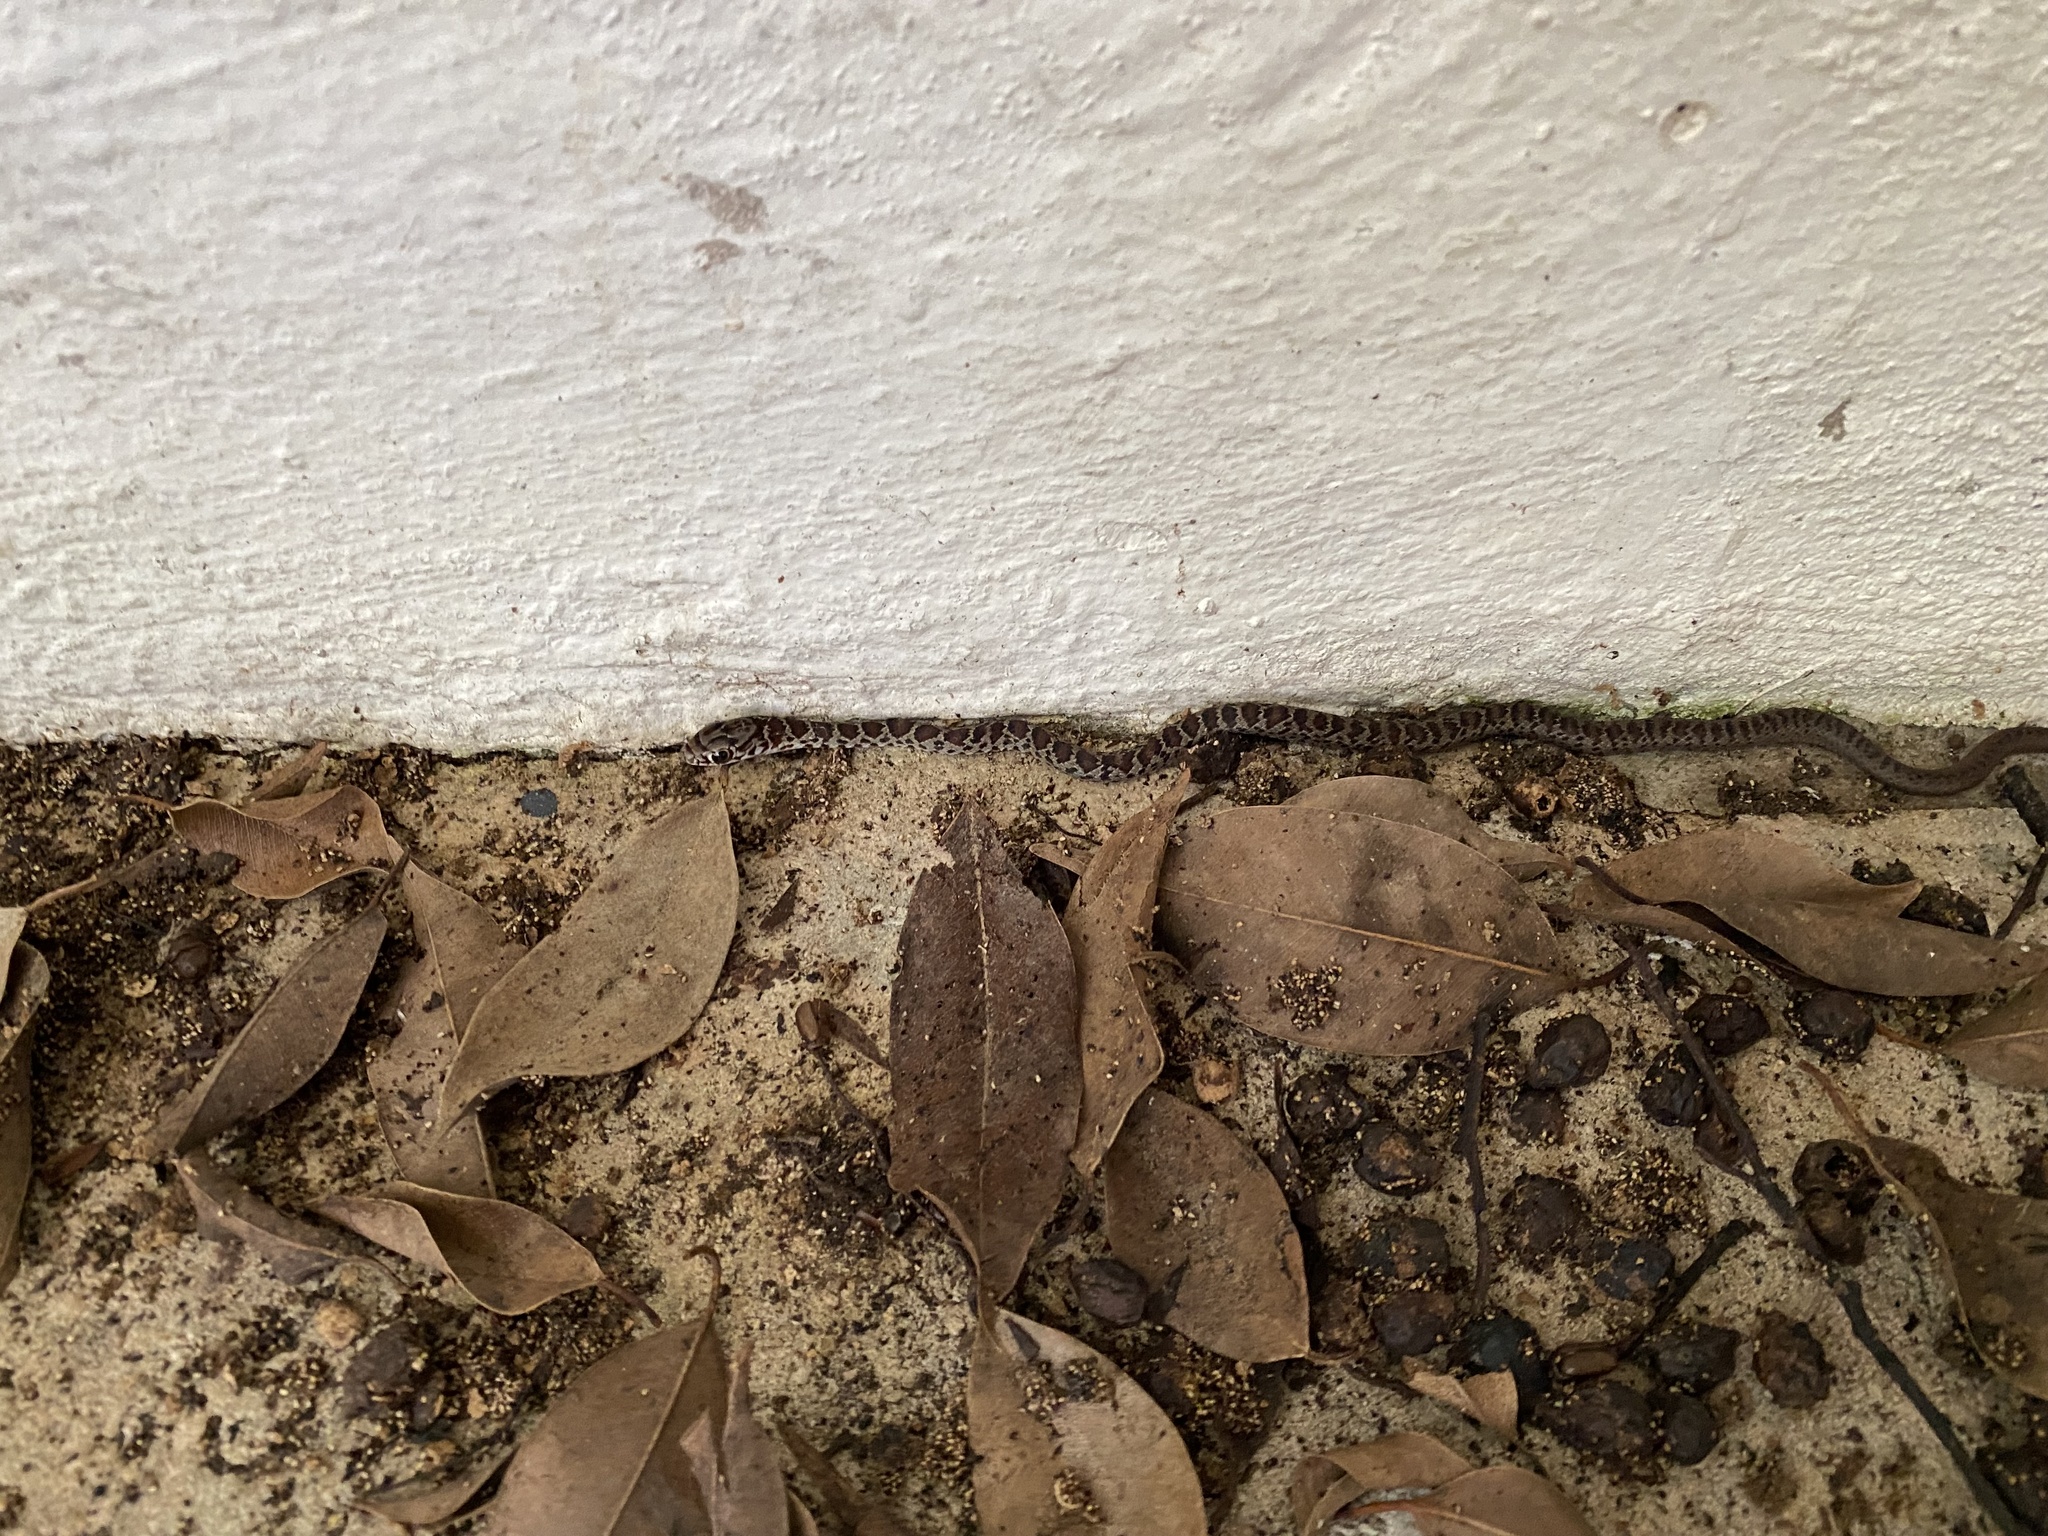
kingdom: Animalia
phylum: Chordata
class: Squamata
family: Colubridae
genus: Coluber
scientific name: Coluber constrictor
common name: Eastern racer
